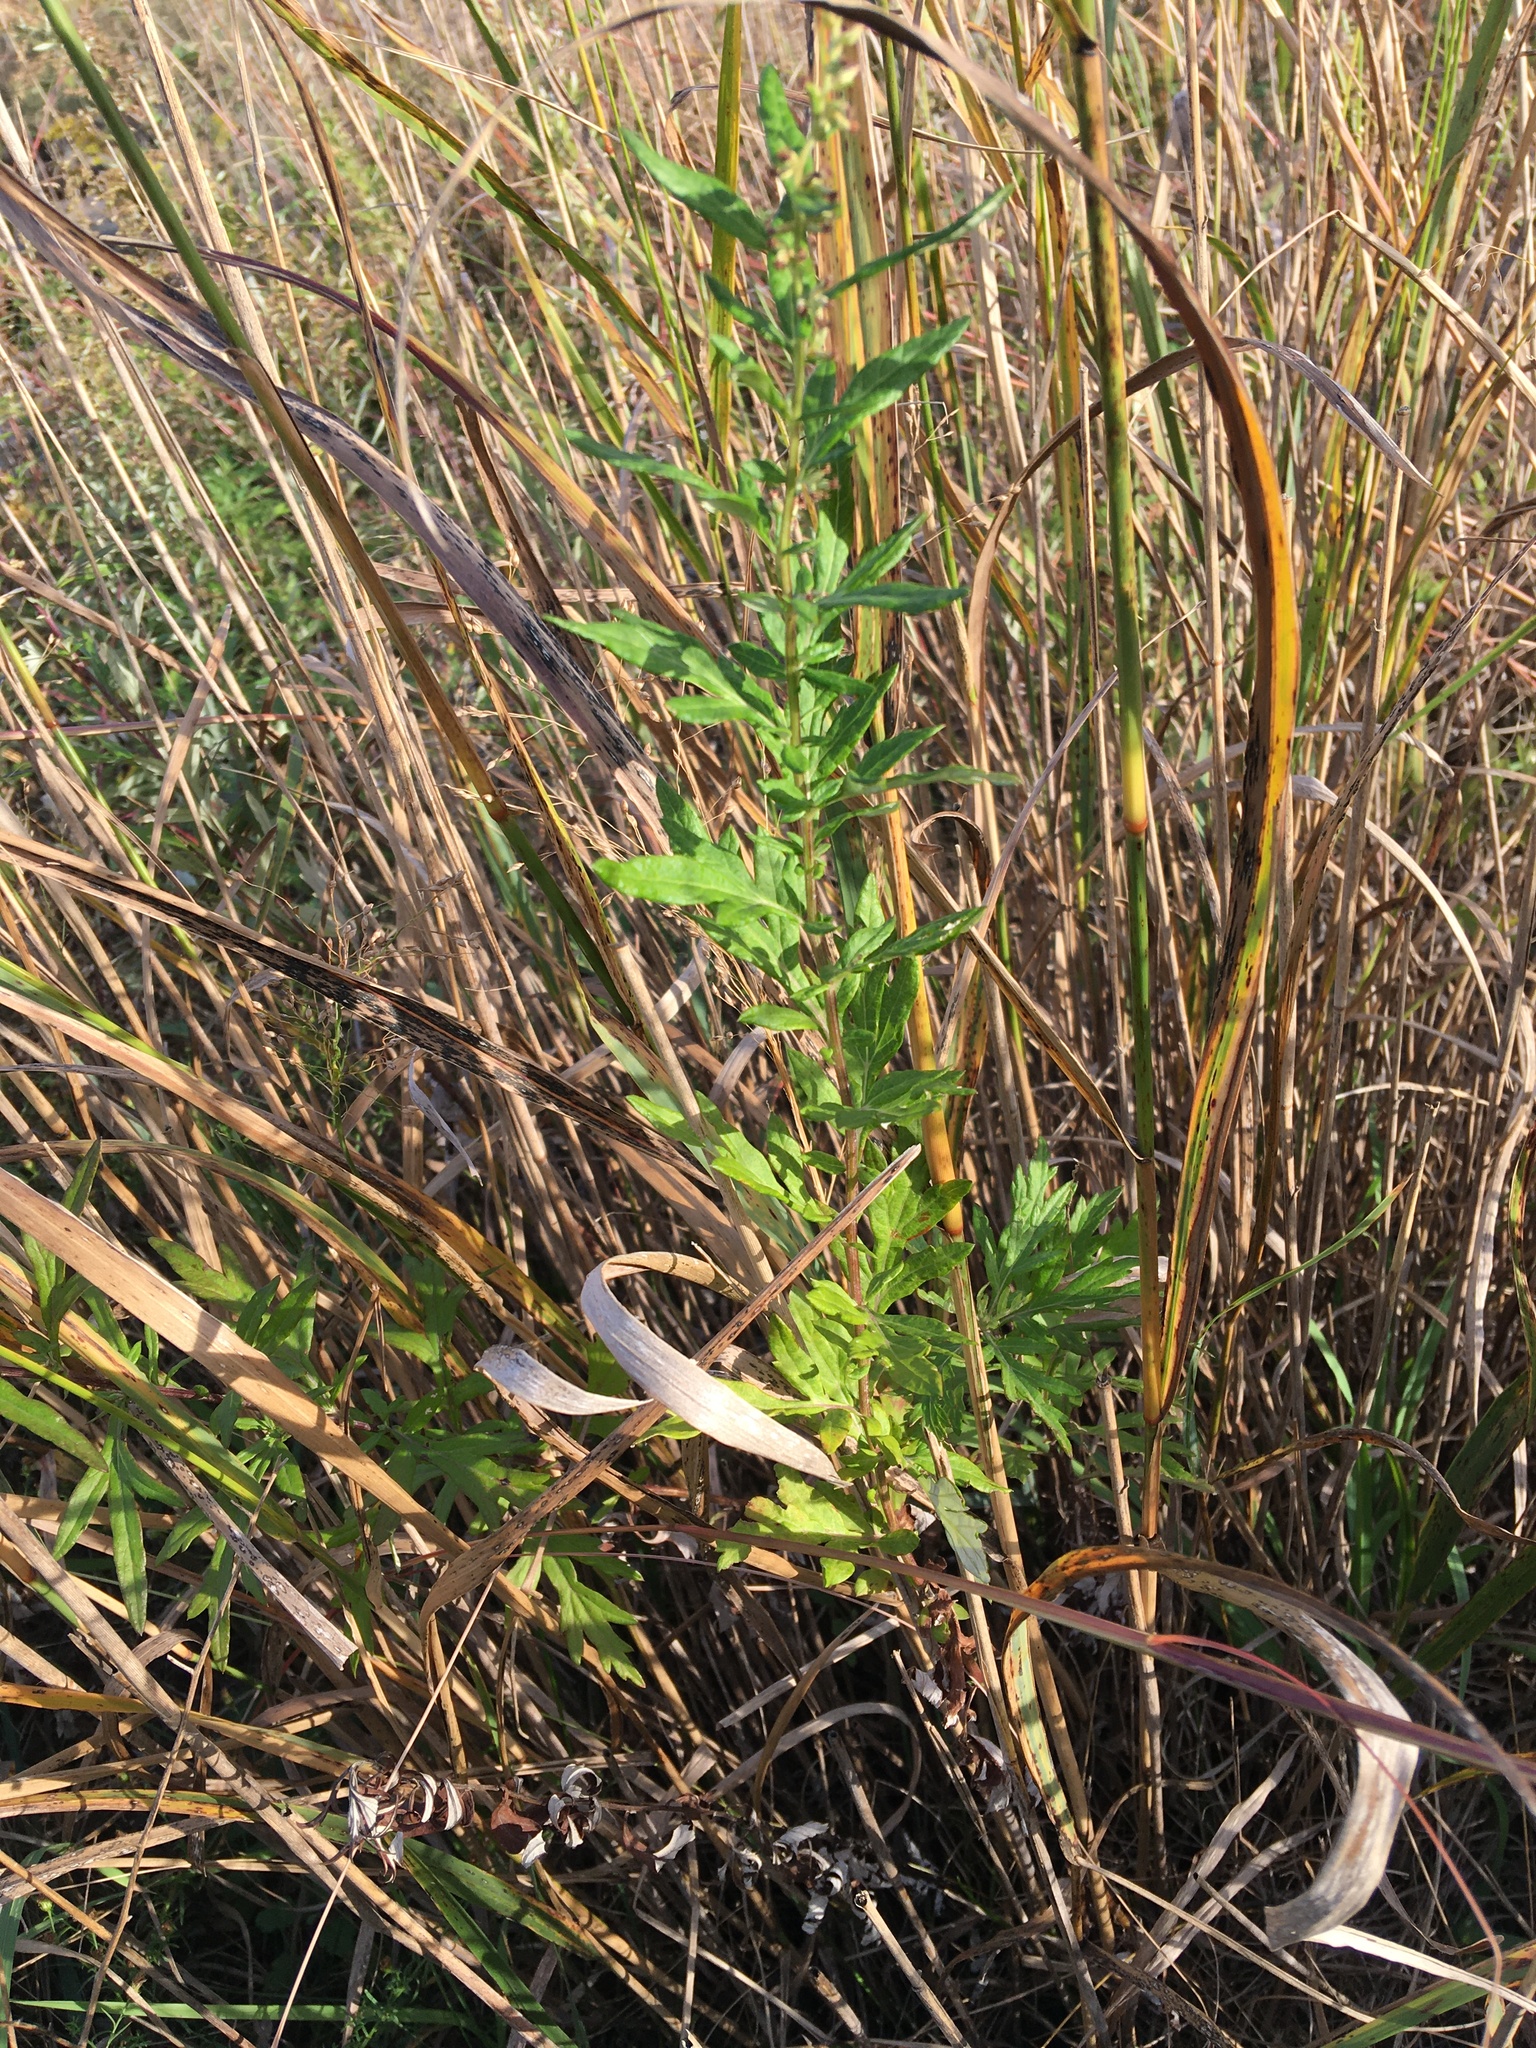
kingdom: Plantae
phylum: Tracheophyta
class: Magnoliopsida
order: Asterales
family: Asteraceae
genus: Artemisia
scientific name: Artemisia vulgaris
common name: Mugwort
